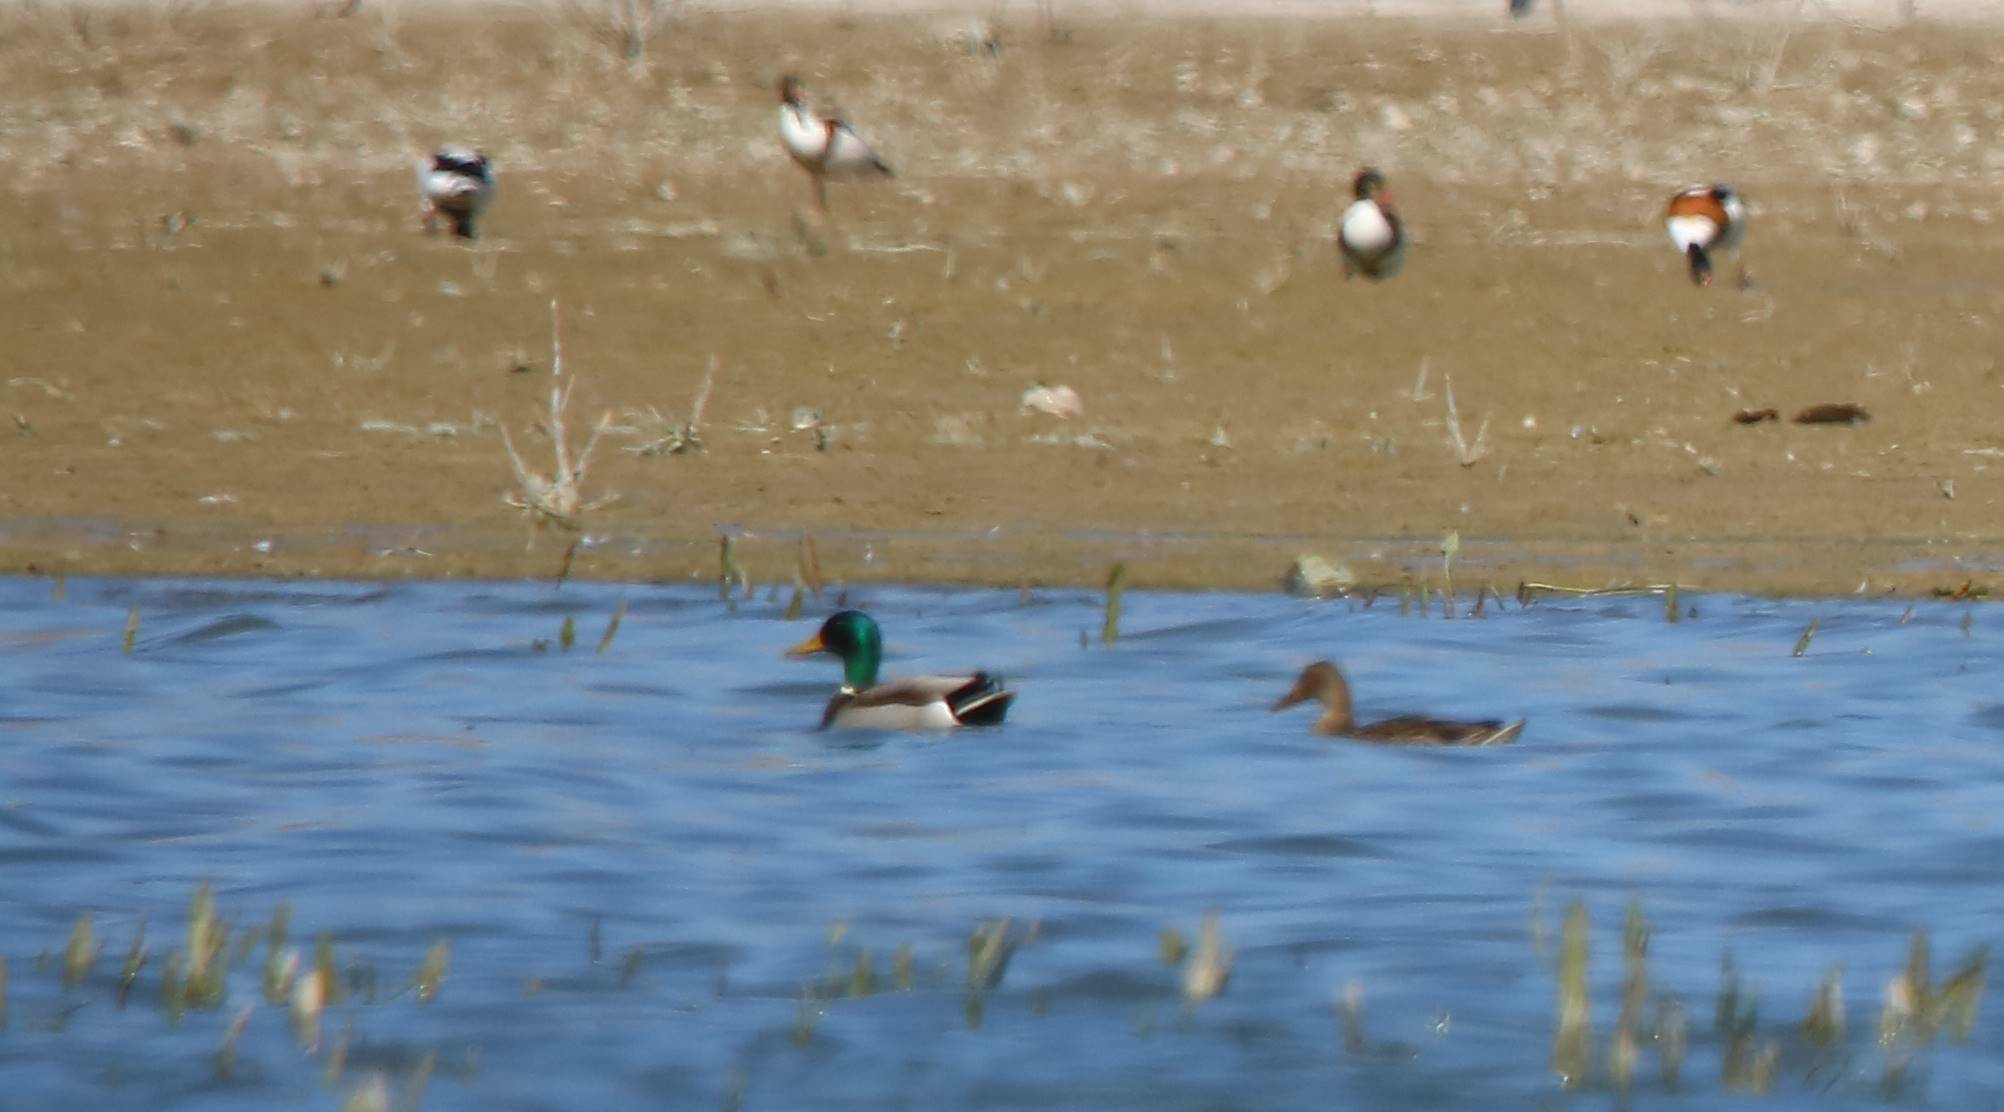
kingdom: Animalia
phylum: Chordata
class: Aves
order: Anseriformes
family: Anatidae
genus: Anas
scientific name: Anas platyrhynchos
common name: Mallard
